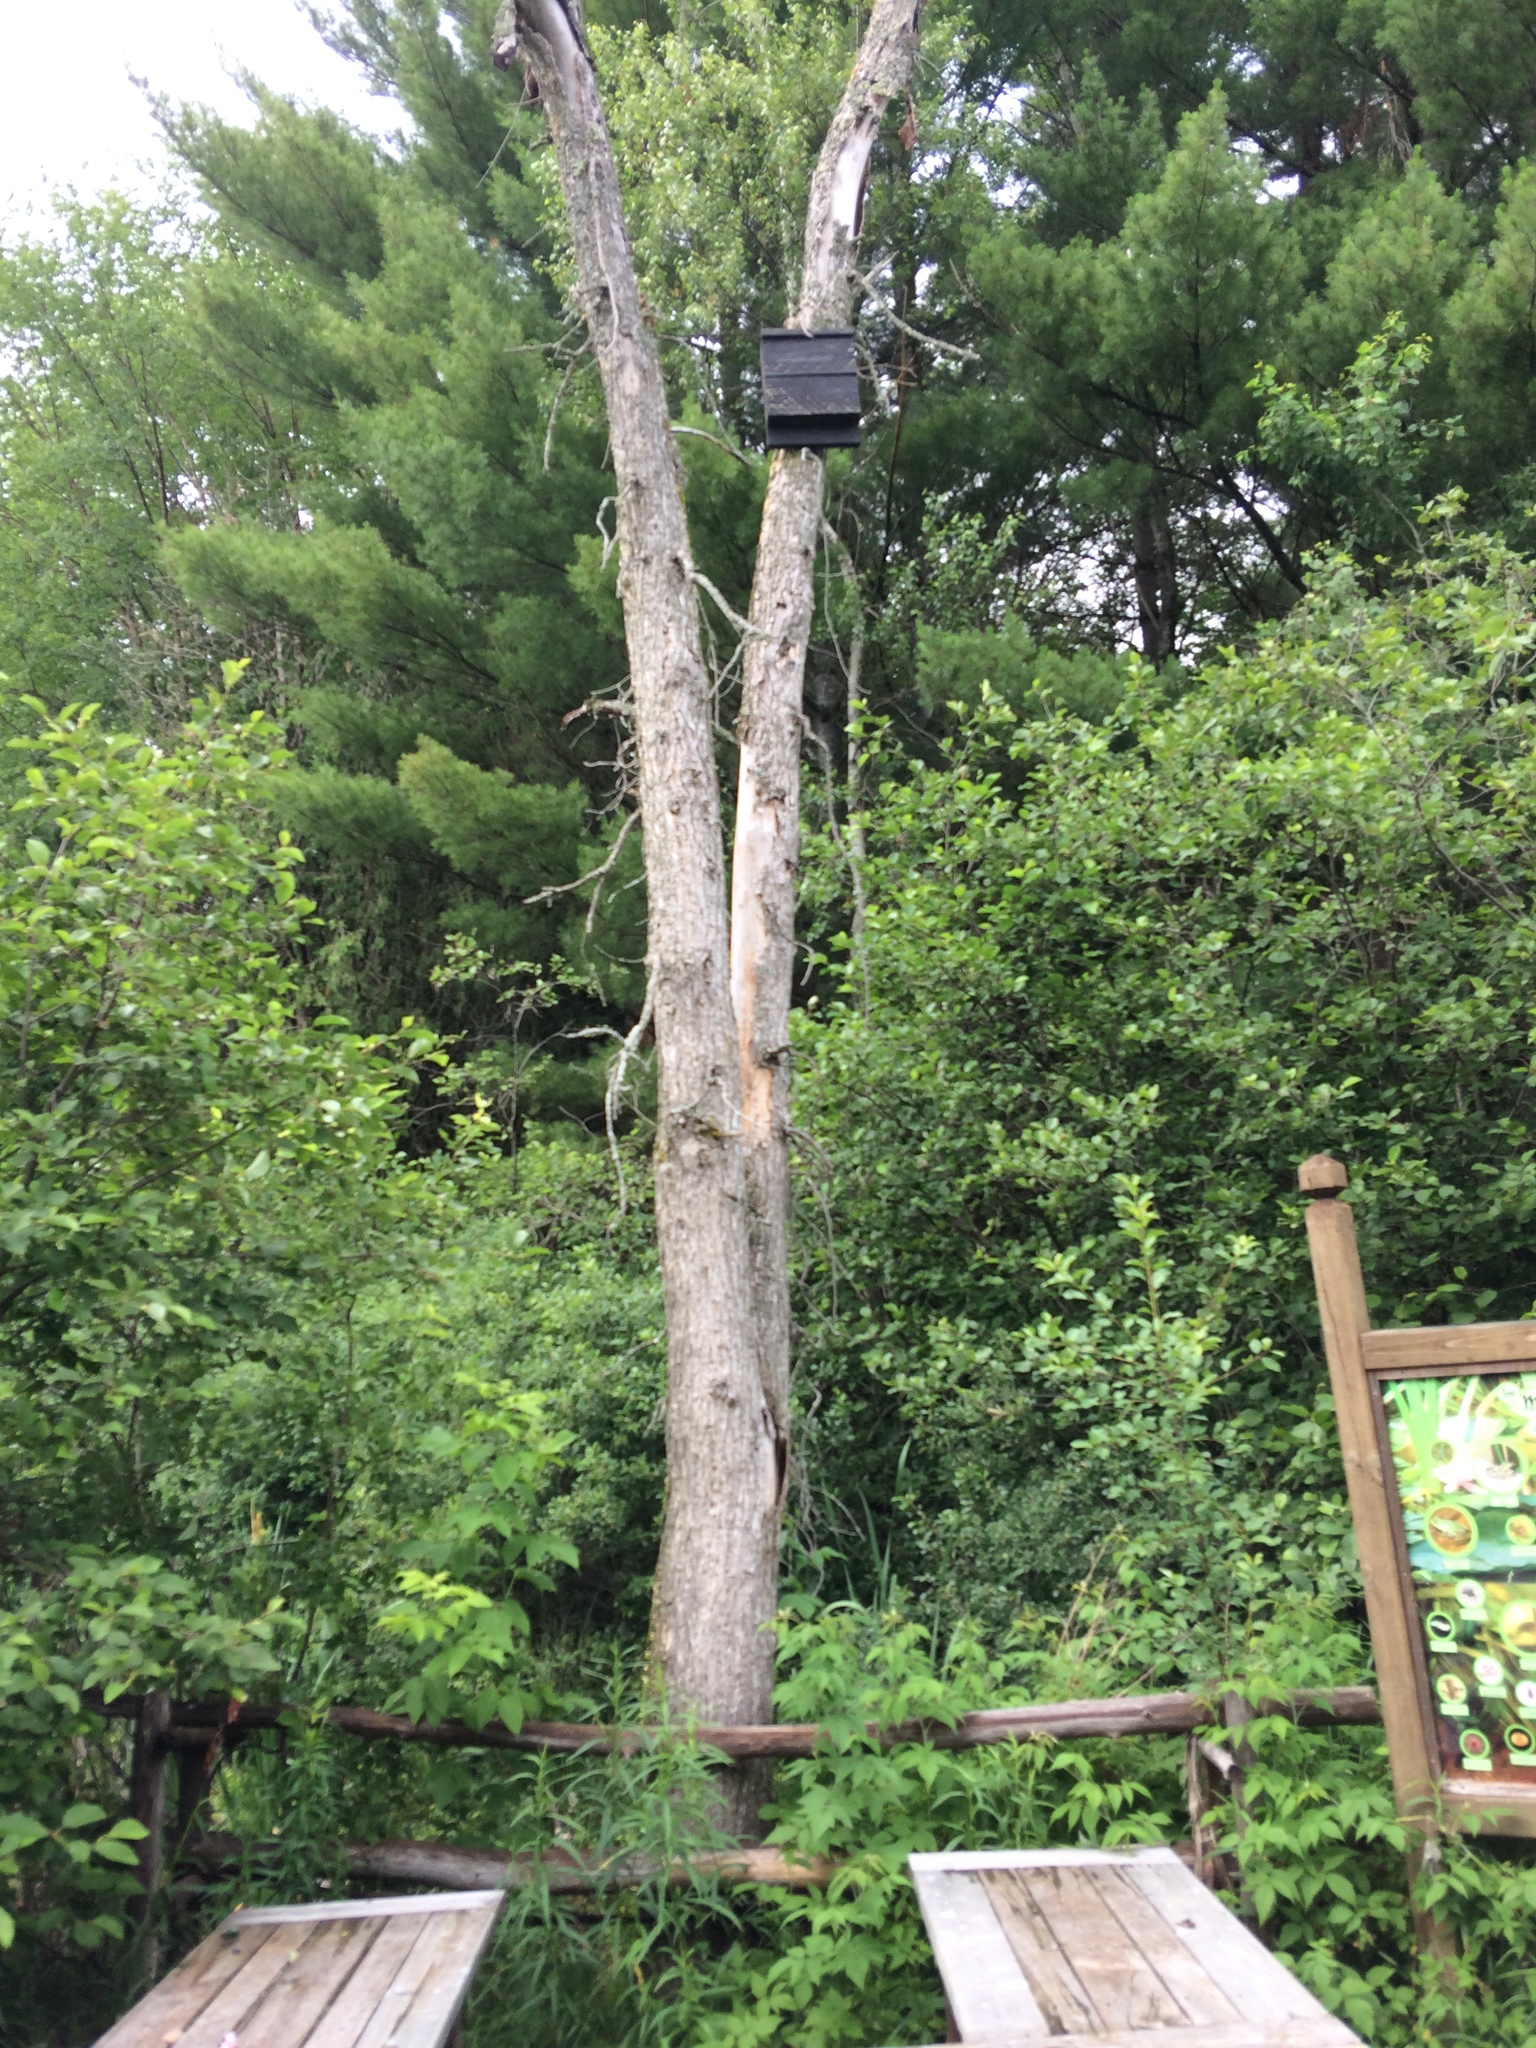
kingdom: Plantae
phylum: Tracheophyta
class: Magnoliopsida
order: Rosales
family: Ulmaceae
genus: Ulmus
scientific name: Ulmus americana
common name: American elm
